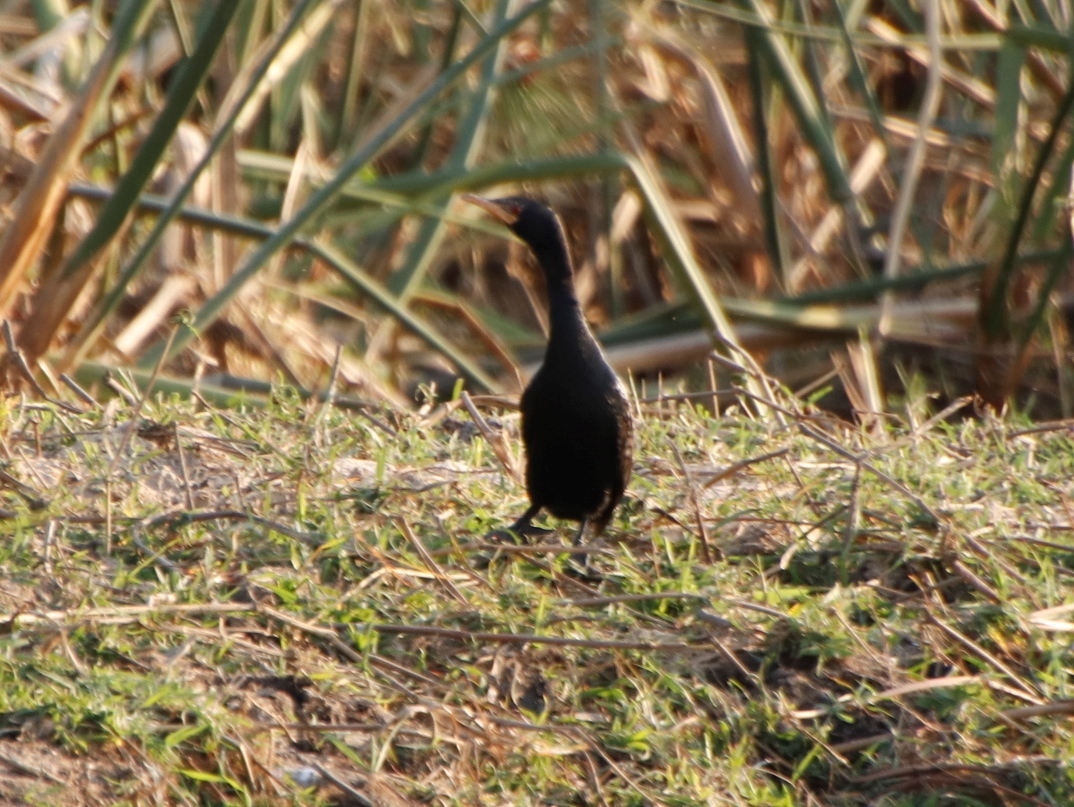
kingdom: Animalia
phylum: Chordata
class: Aves
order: Suliformes
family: Phalacrocoracidae
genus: Microcarbo
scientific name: Microcarbo africanus
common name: Long-tailed cormorant
